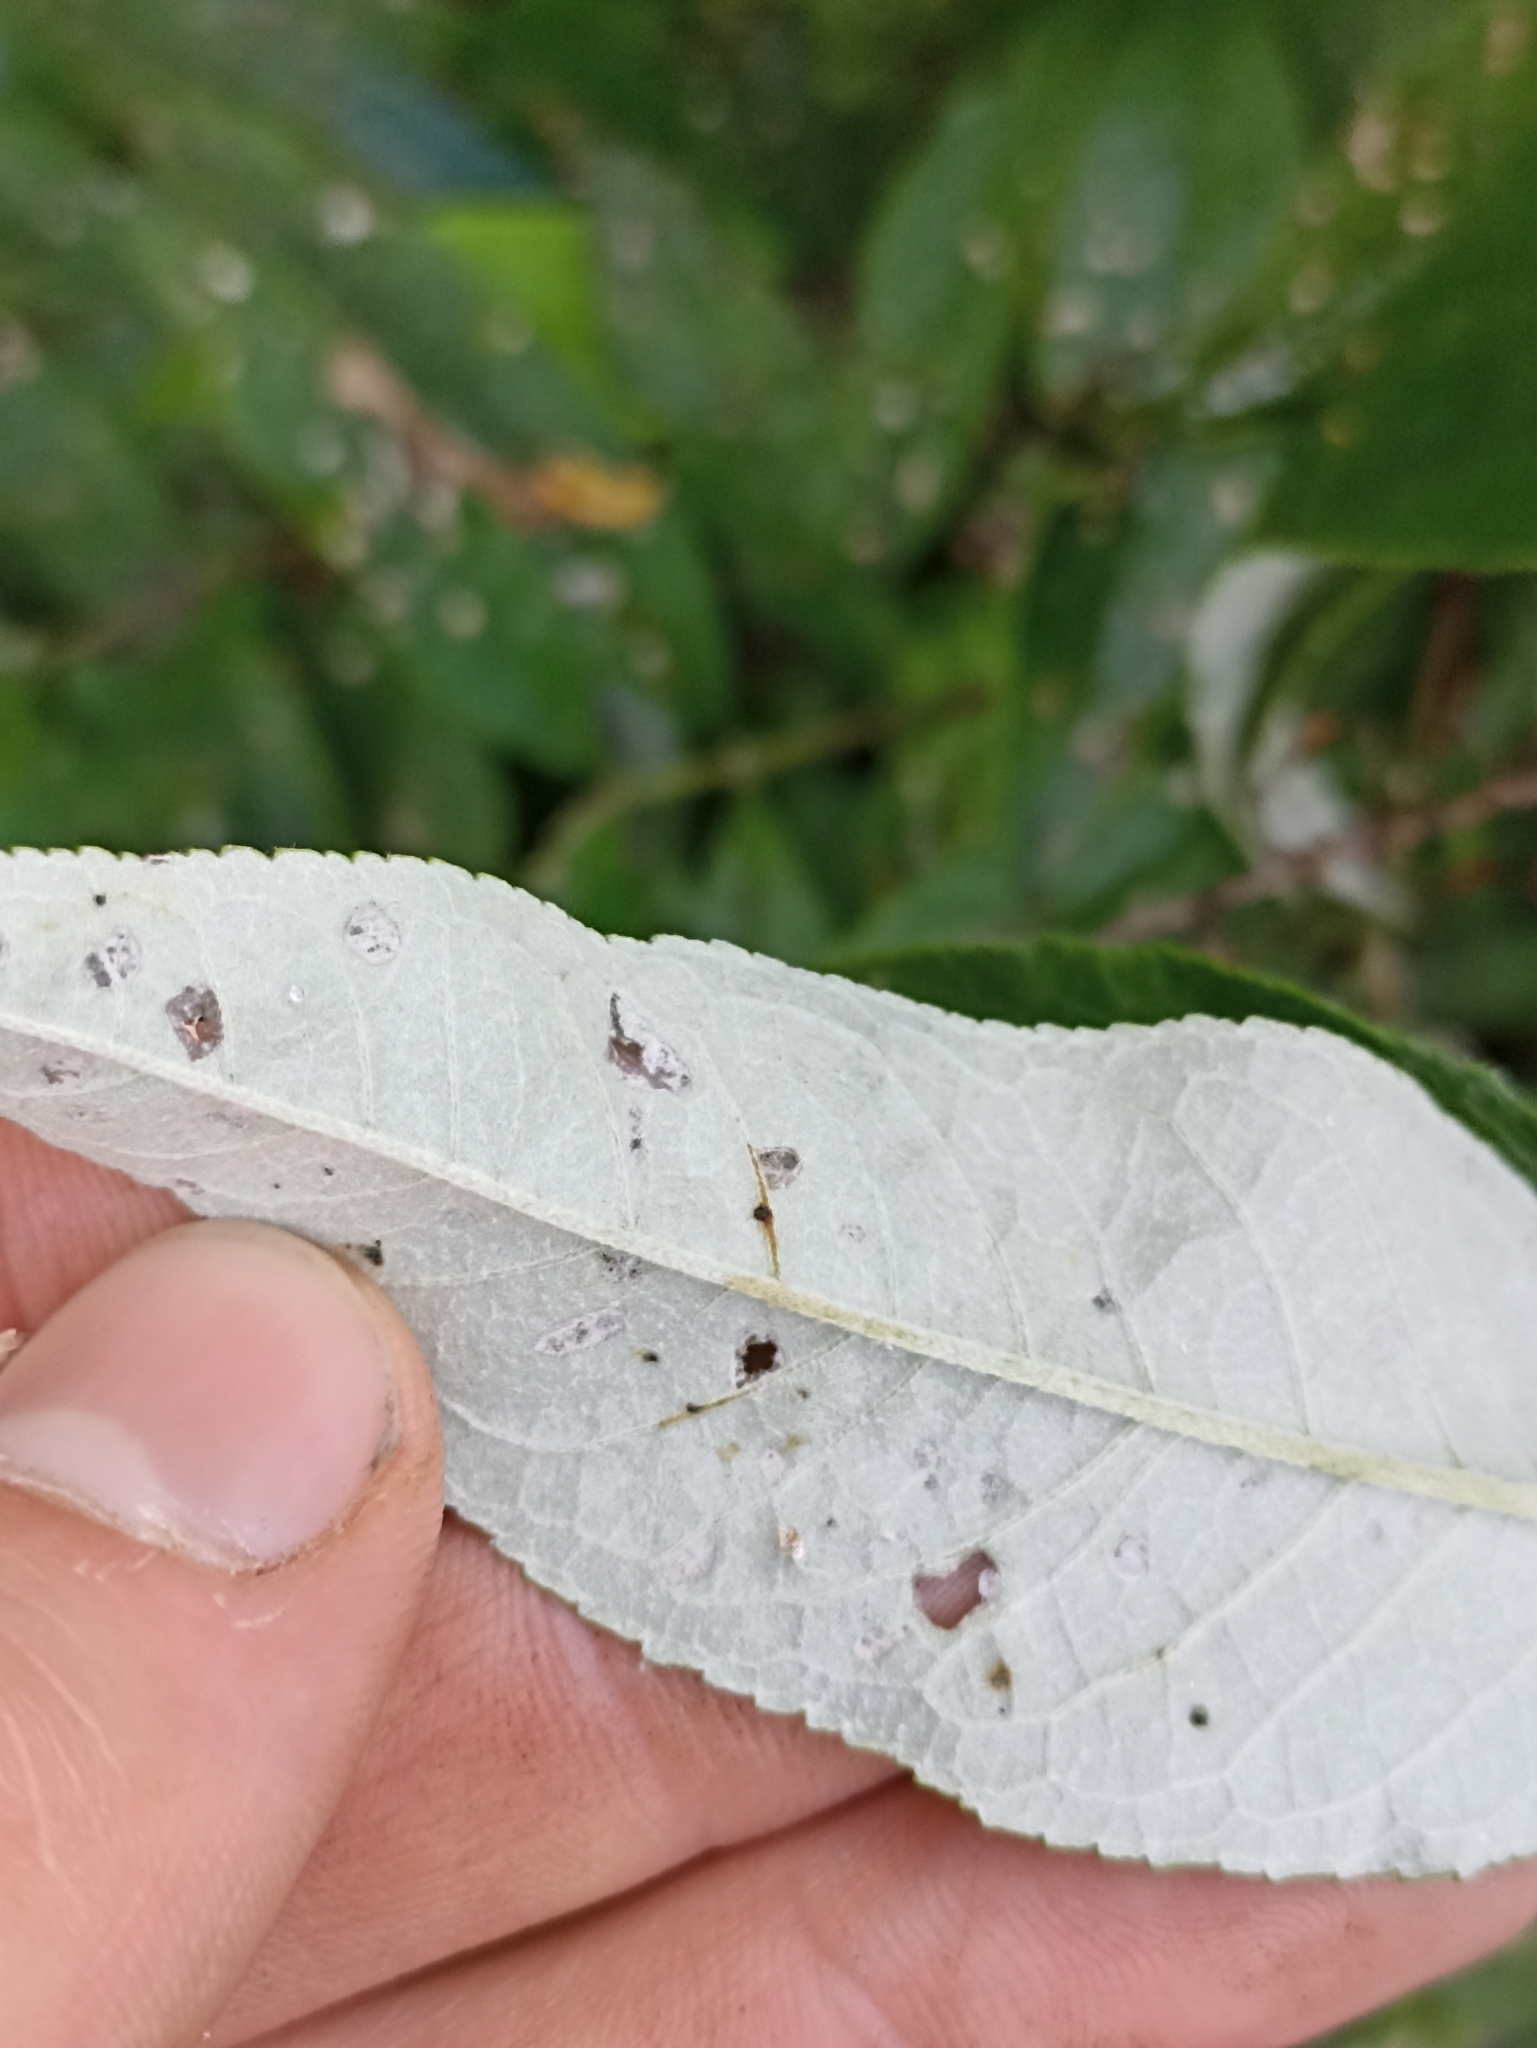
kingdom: Plantae
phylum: Tracheophyta
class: Magnoliopsida
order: Lamiales
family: Scrophulariaceae
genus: Buddleja
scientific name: Buddleja davidii
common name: Butterfly-bush
